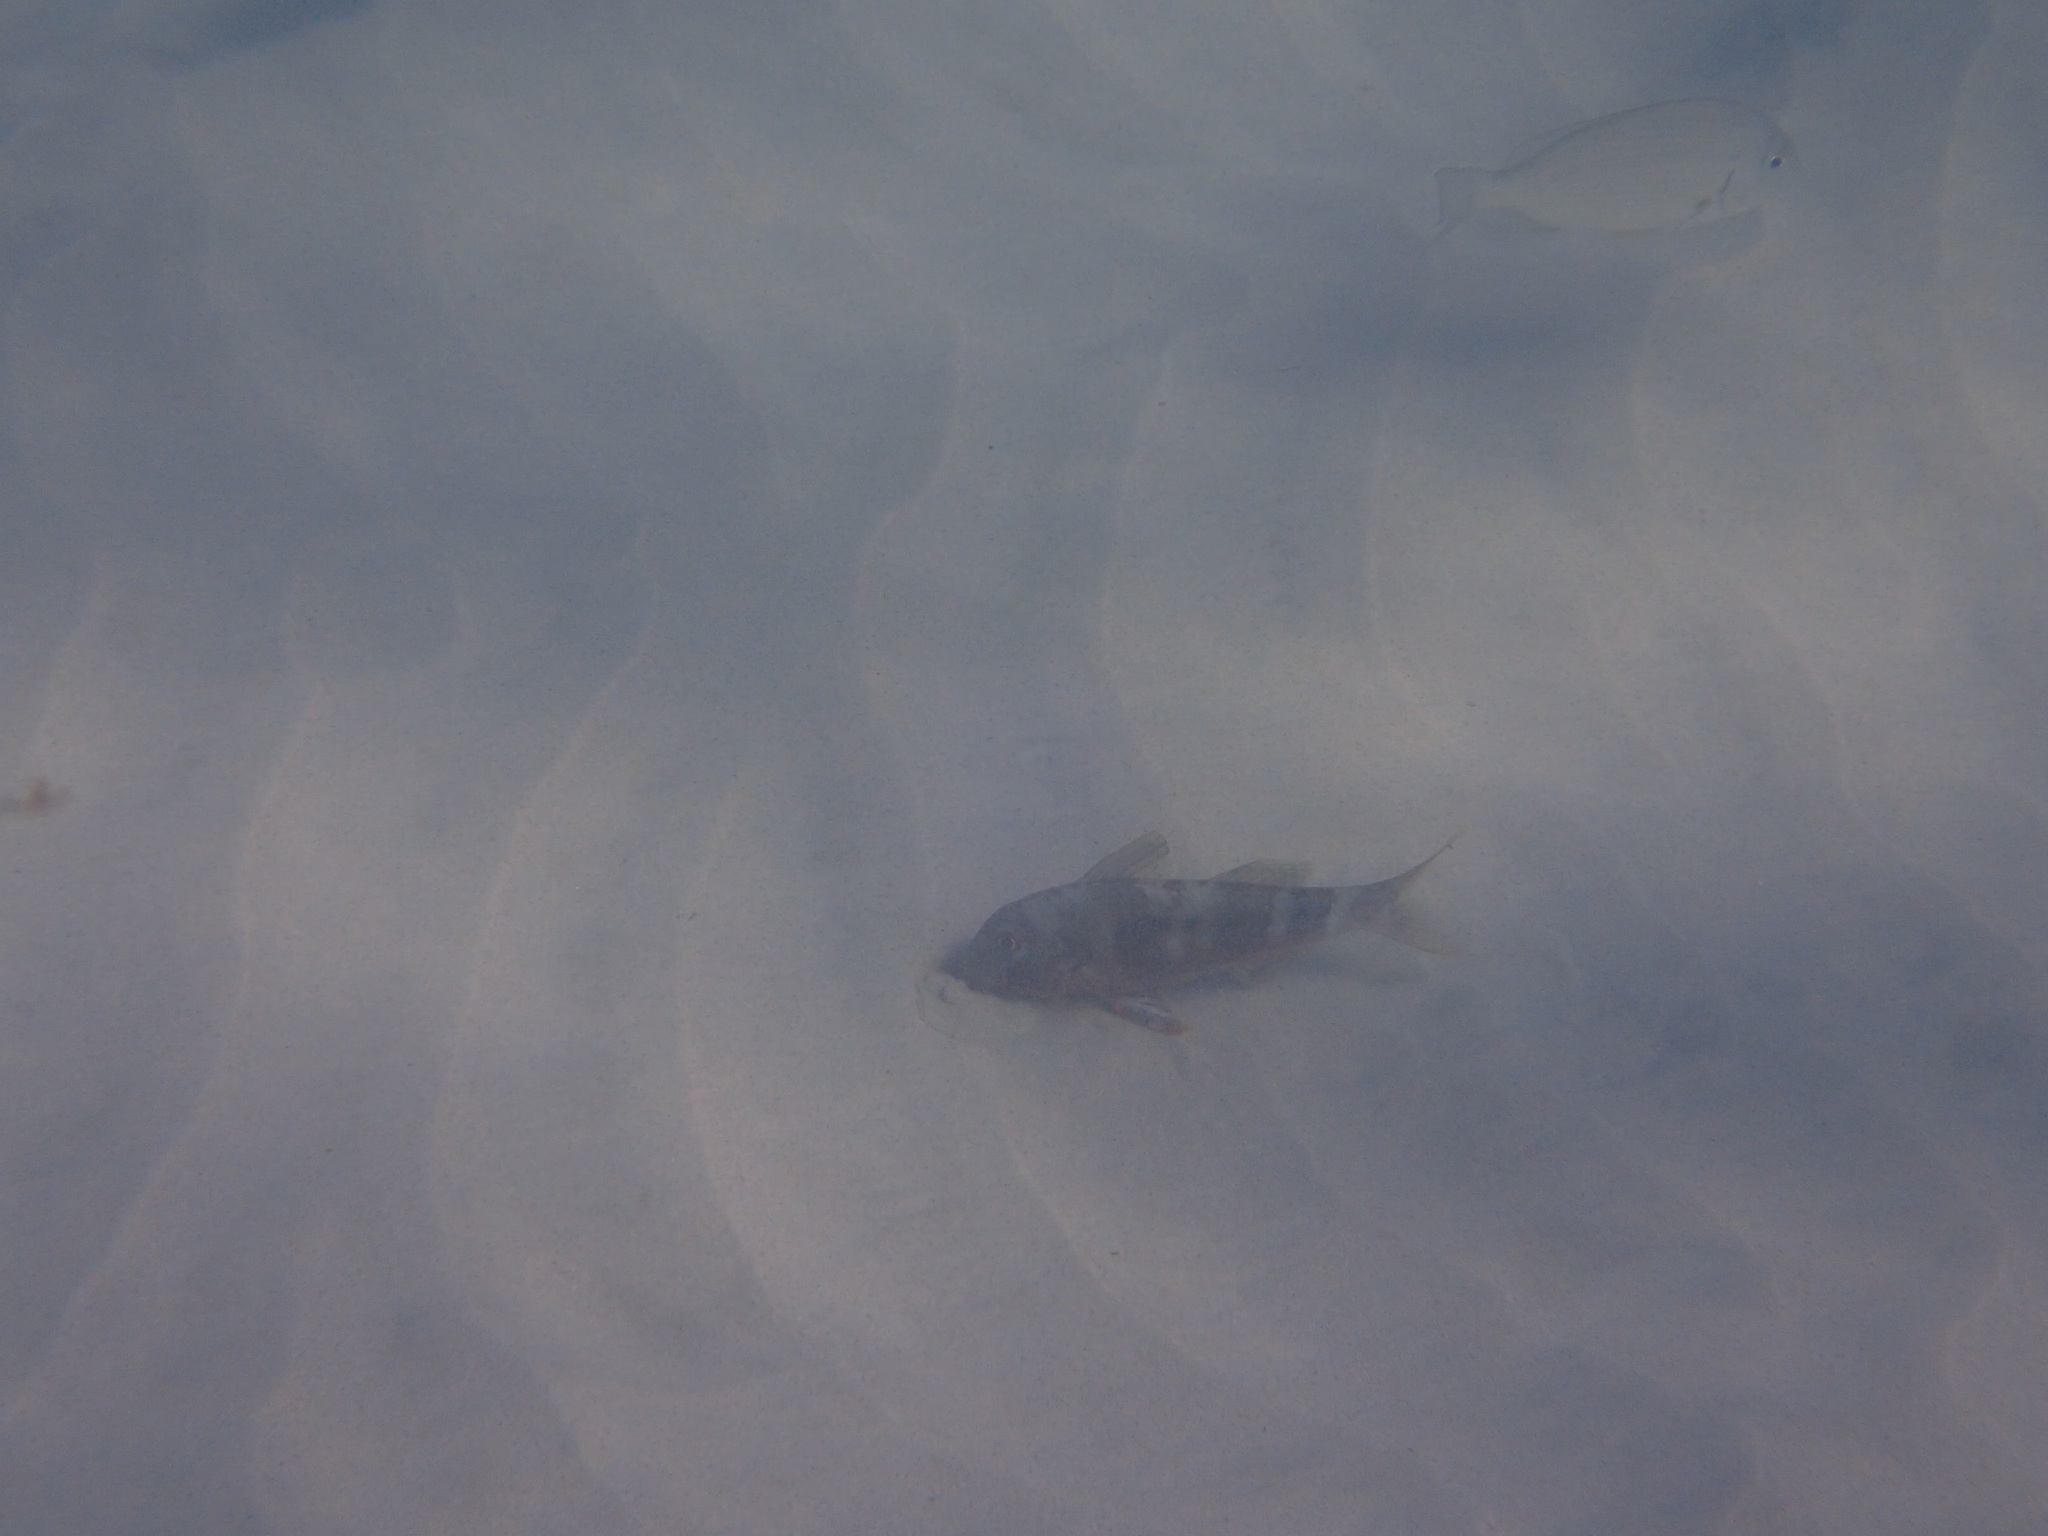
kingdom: Animalia
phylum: Chordata
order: Perciformes
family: Mullidae
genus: Upeneichthys
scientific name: Upeneichthys vlamingii
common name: Red mullet
